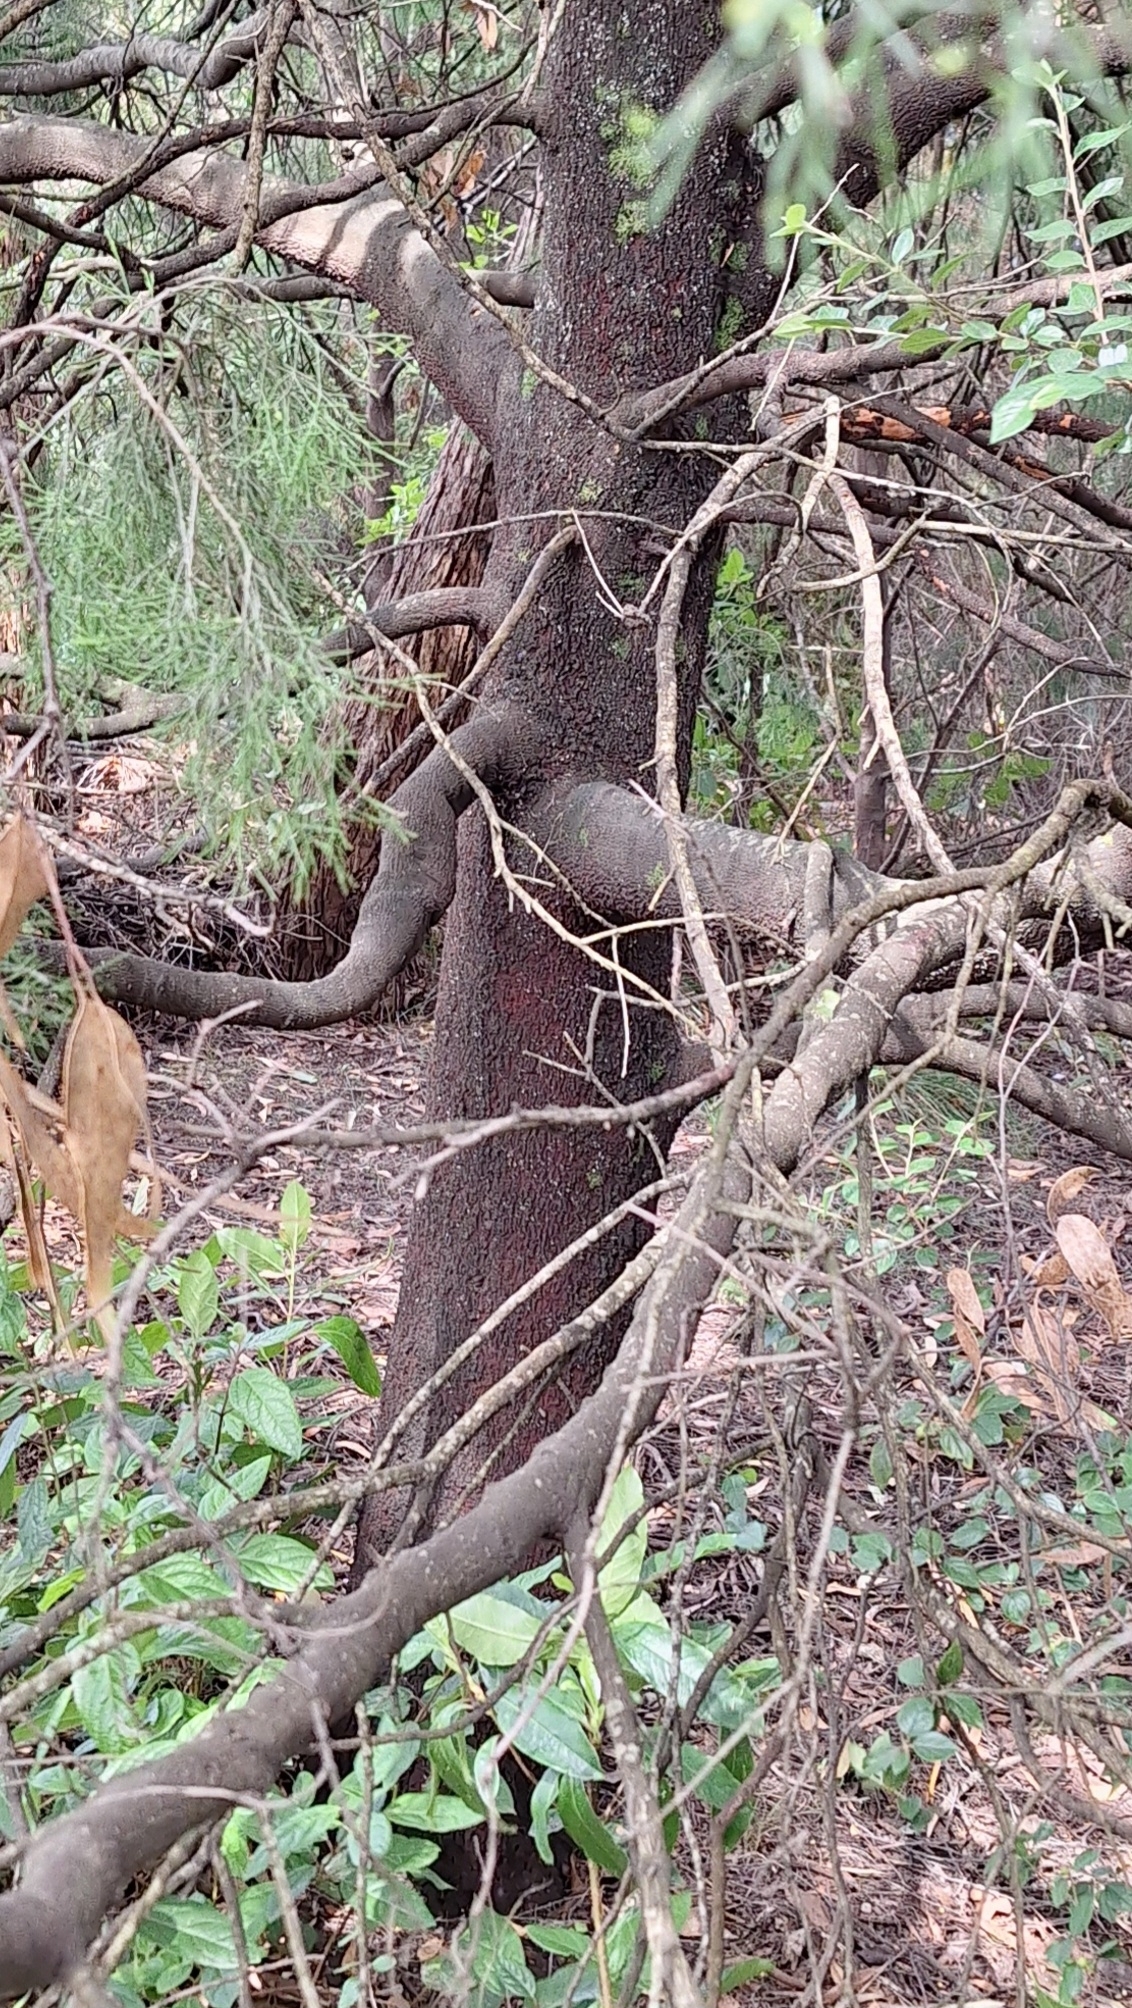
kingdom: Plantae
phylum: Tracheophyta
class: Magnoliopsida
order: Santalales
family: Santalaceae
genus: Exocarpos
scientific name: Exocarpos cupressiformis
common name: Cherry ballart
